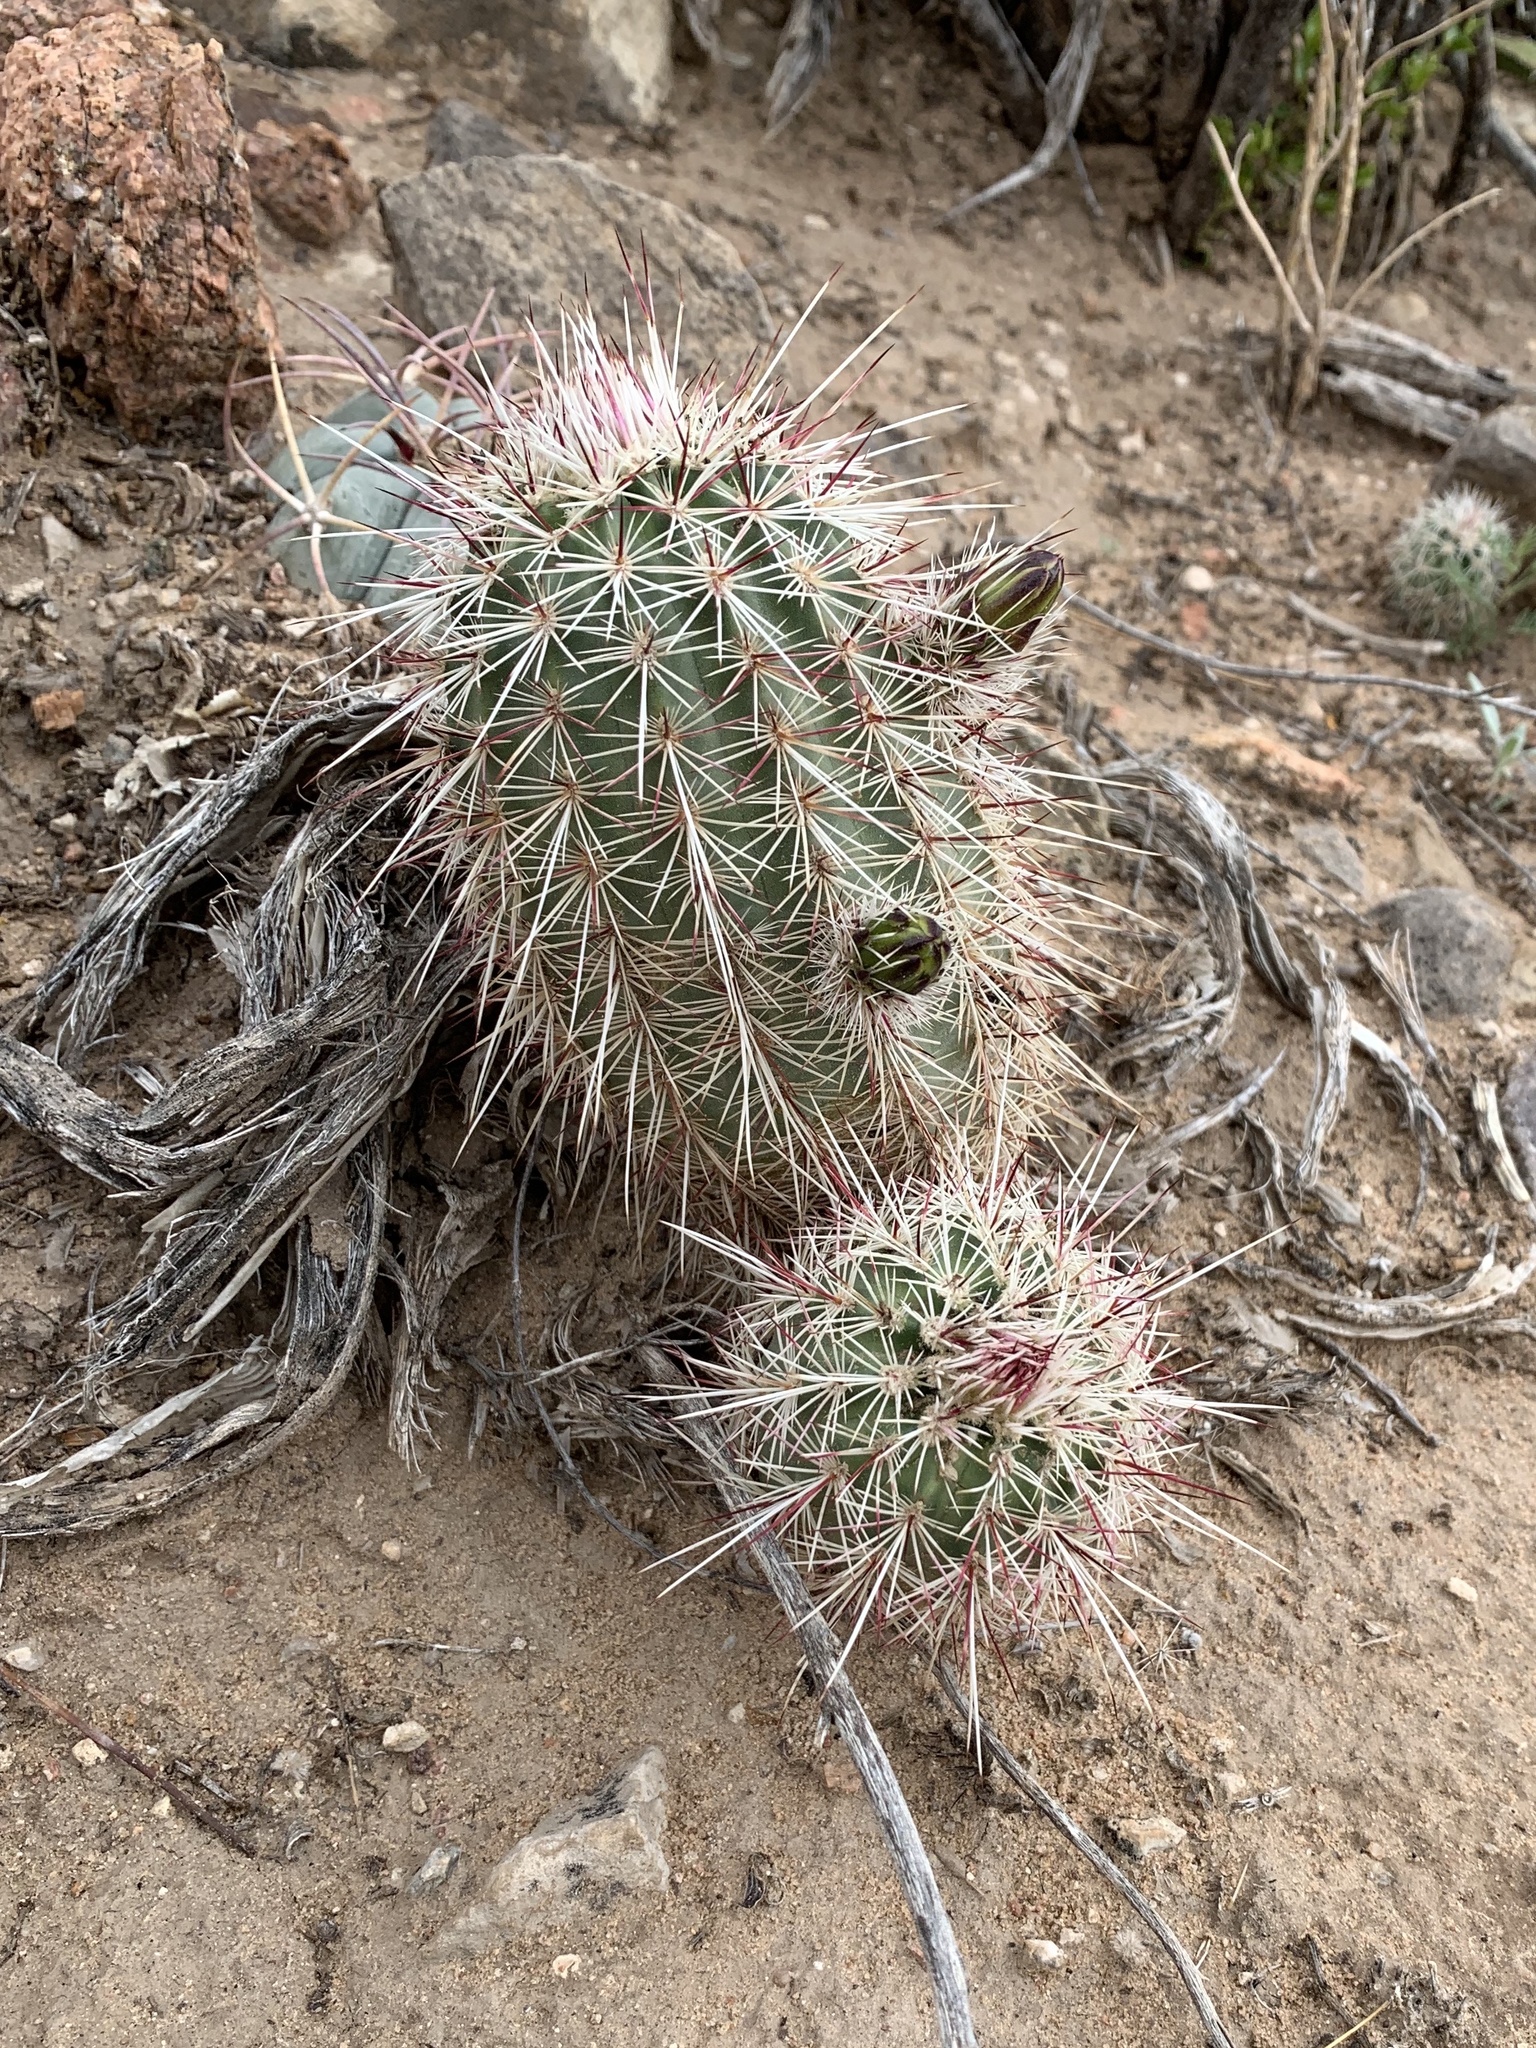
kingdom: Plantae
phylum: Tracheophyta
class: Magnoliopsida
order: Caryophyllales
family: Cactaceae
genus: Echinocereus
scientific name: Echinocereus viridiflorus
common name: Nylon hedgehog cactus
